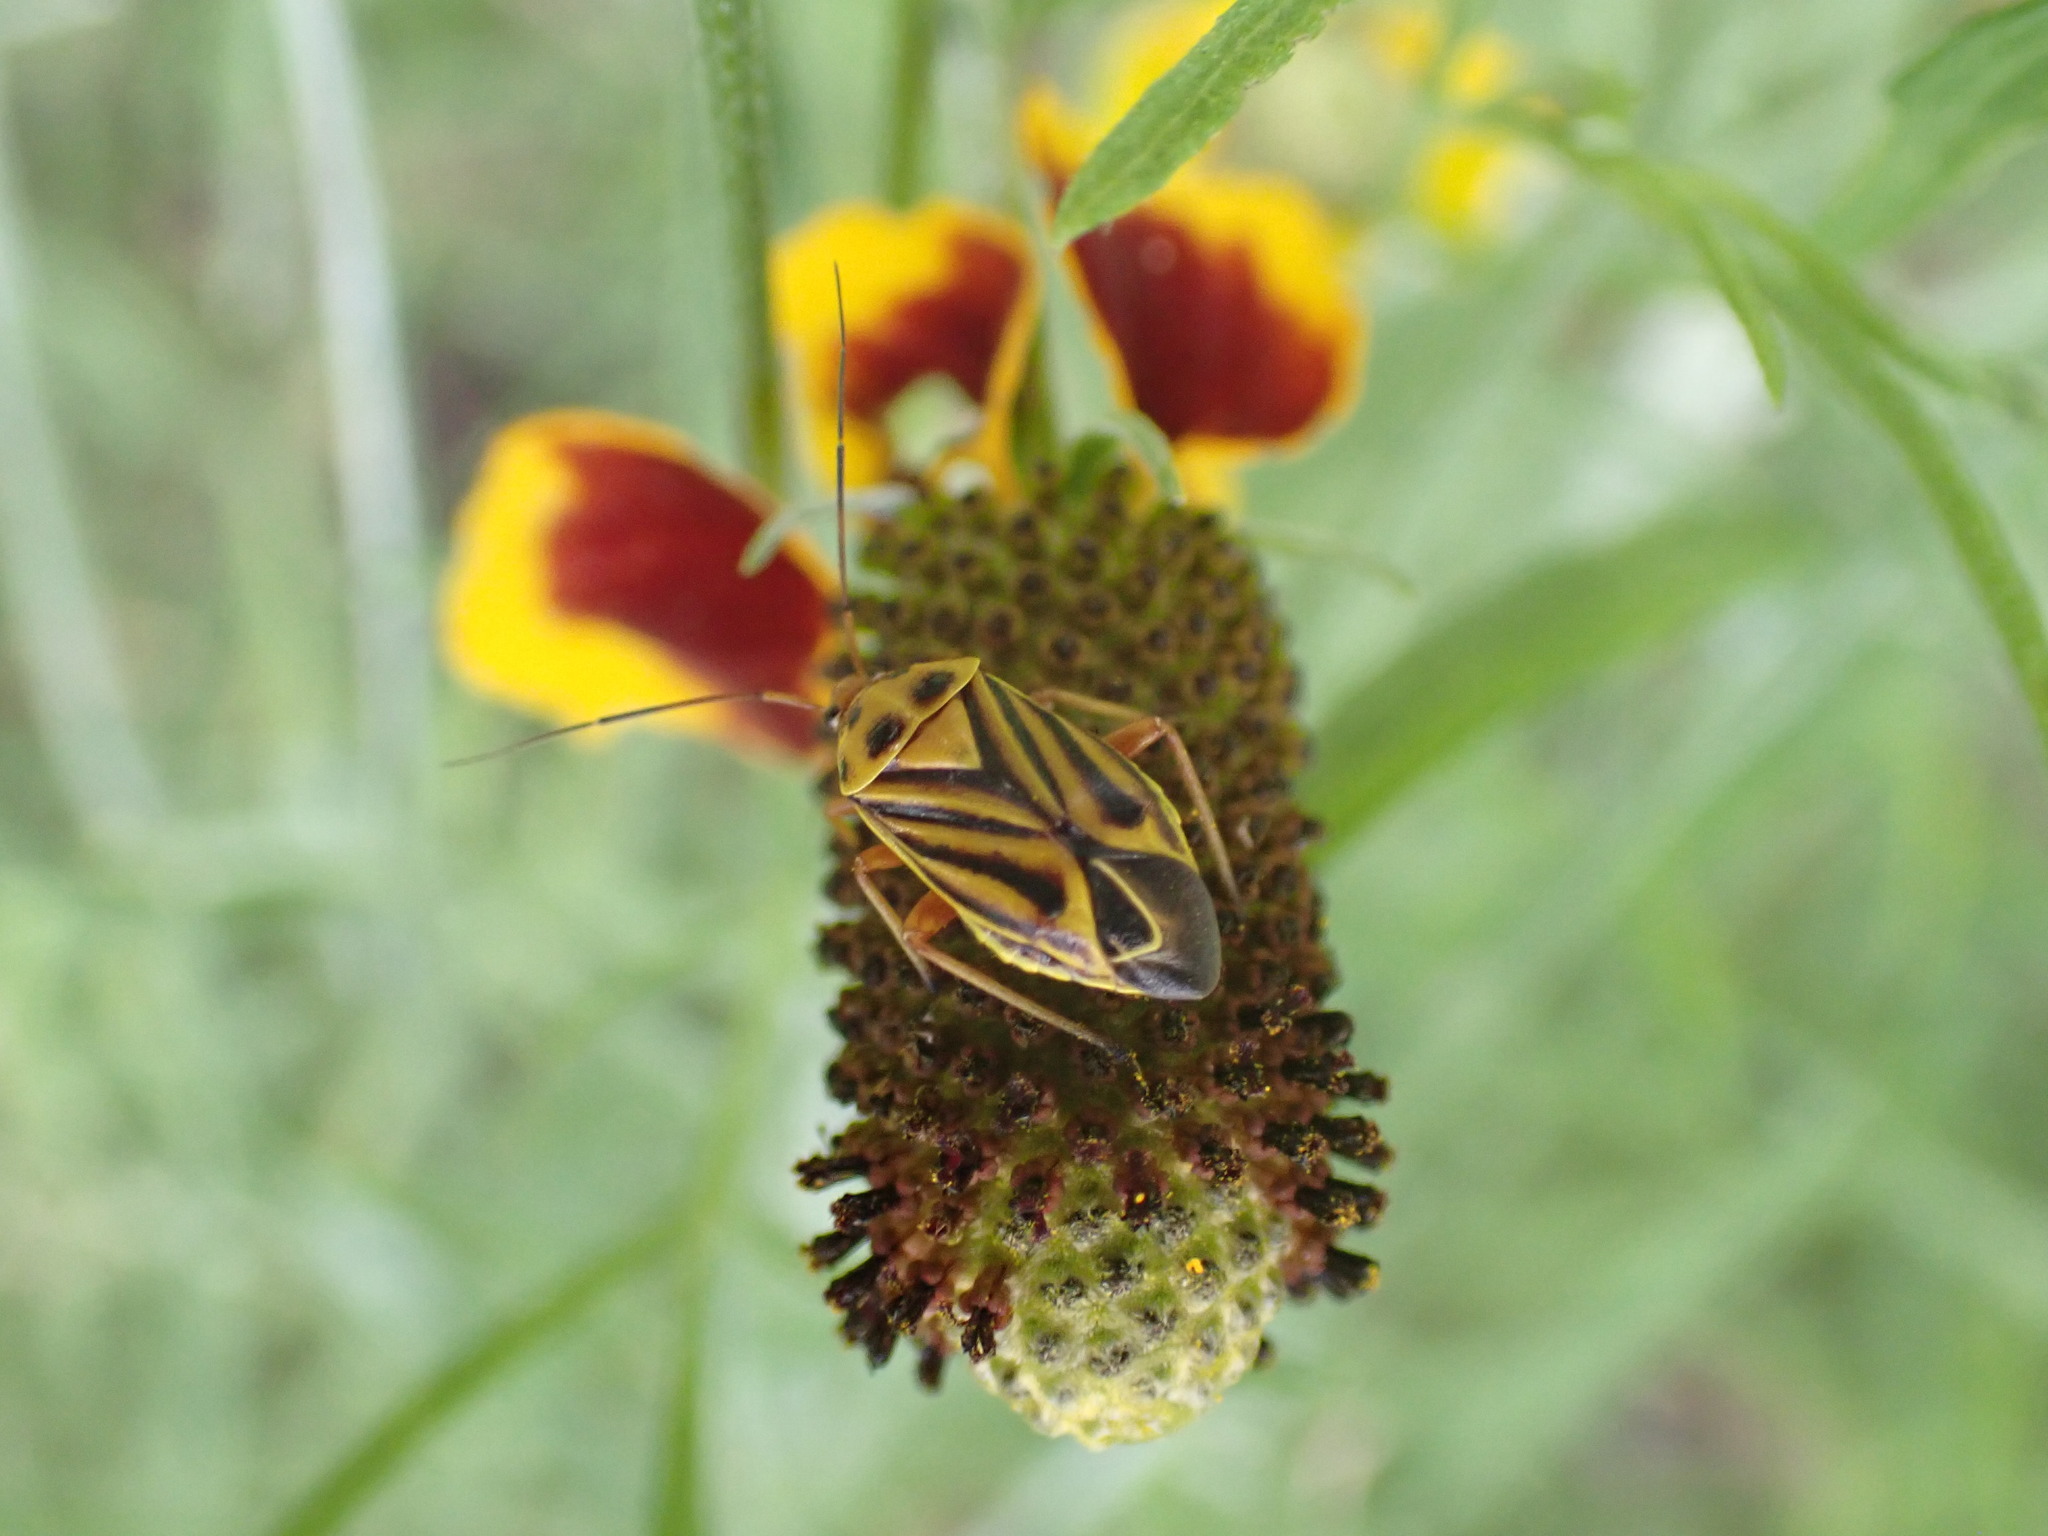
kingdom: Animalia
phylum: Arthropoda
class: Insecta
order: Hemiptera
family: Miridae
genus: Calocoris
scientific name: Calocoris barberi
